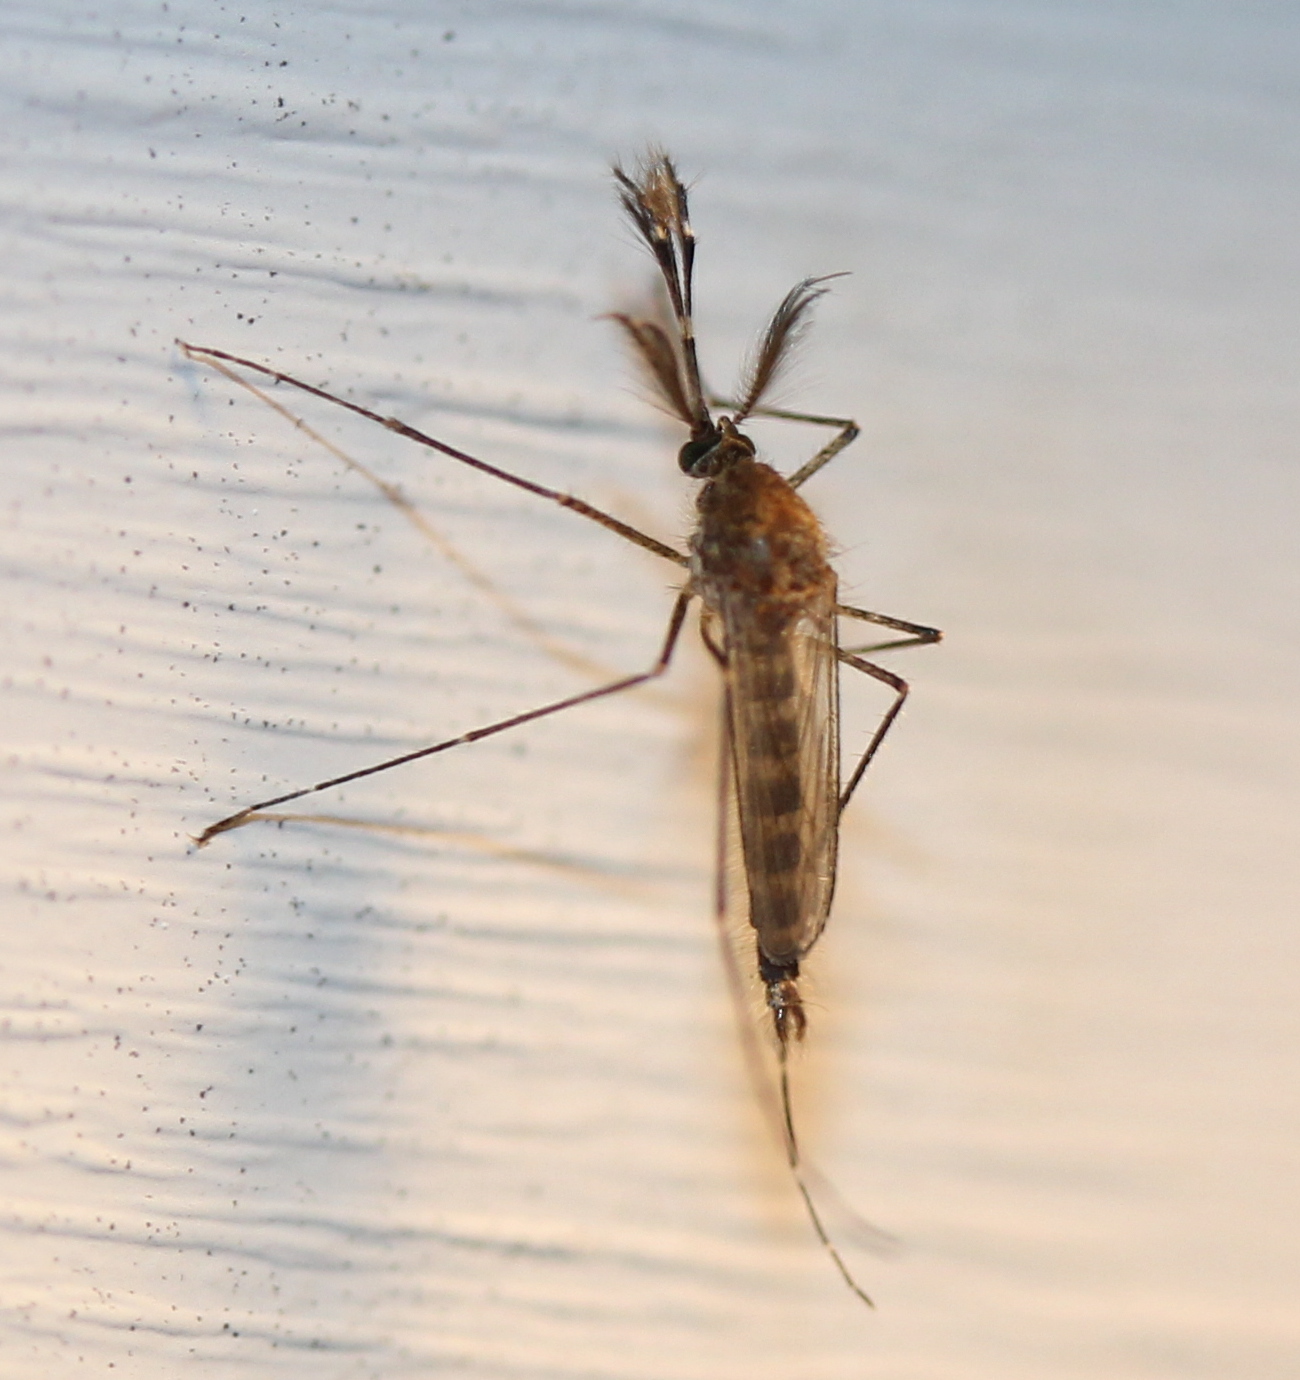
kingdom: Animalia
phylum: Arthropoda
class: Insecta
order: Diptera
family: Culicidae
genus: Aedes
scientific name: Aedes vexans
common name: Inland floodwater mosquito
